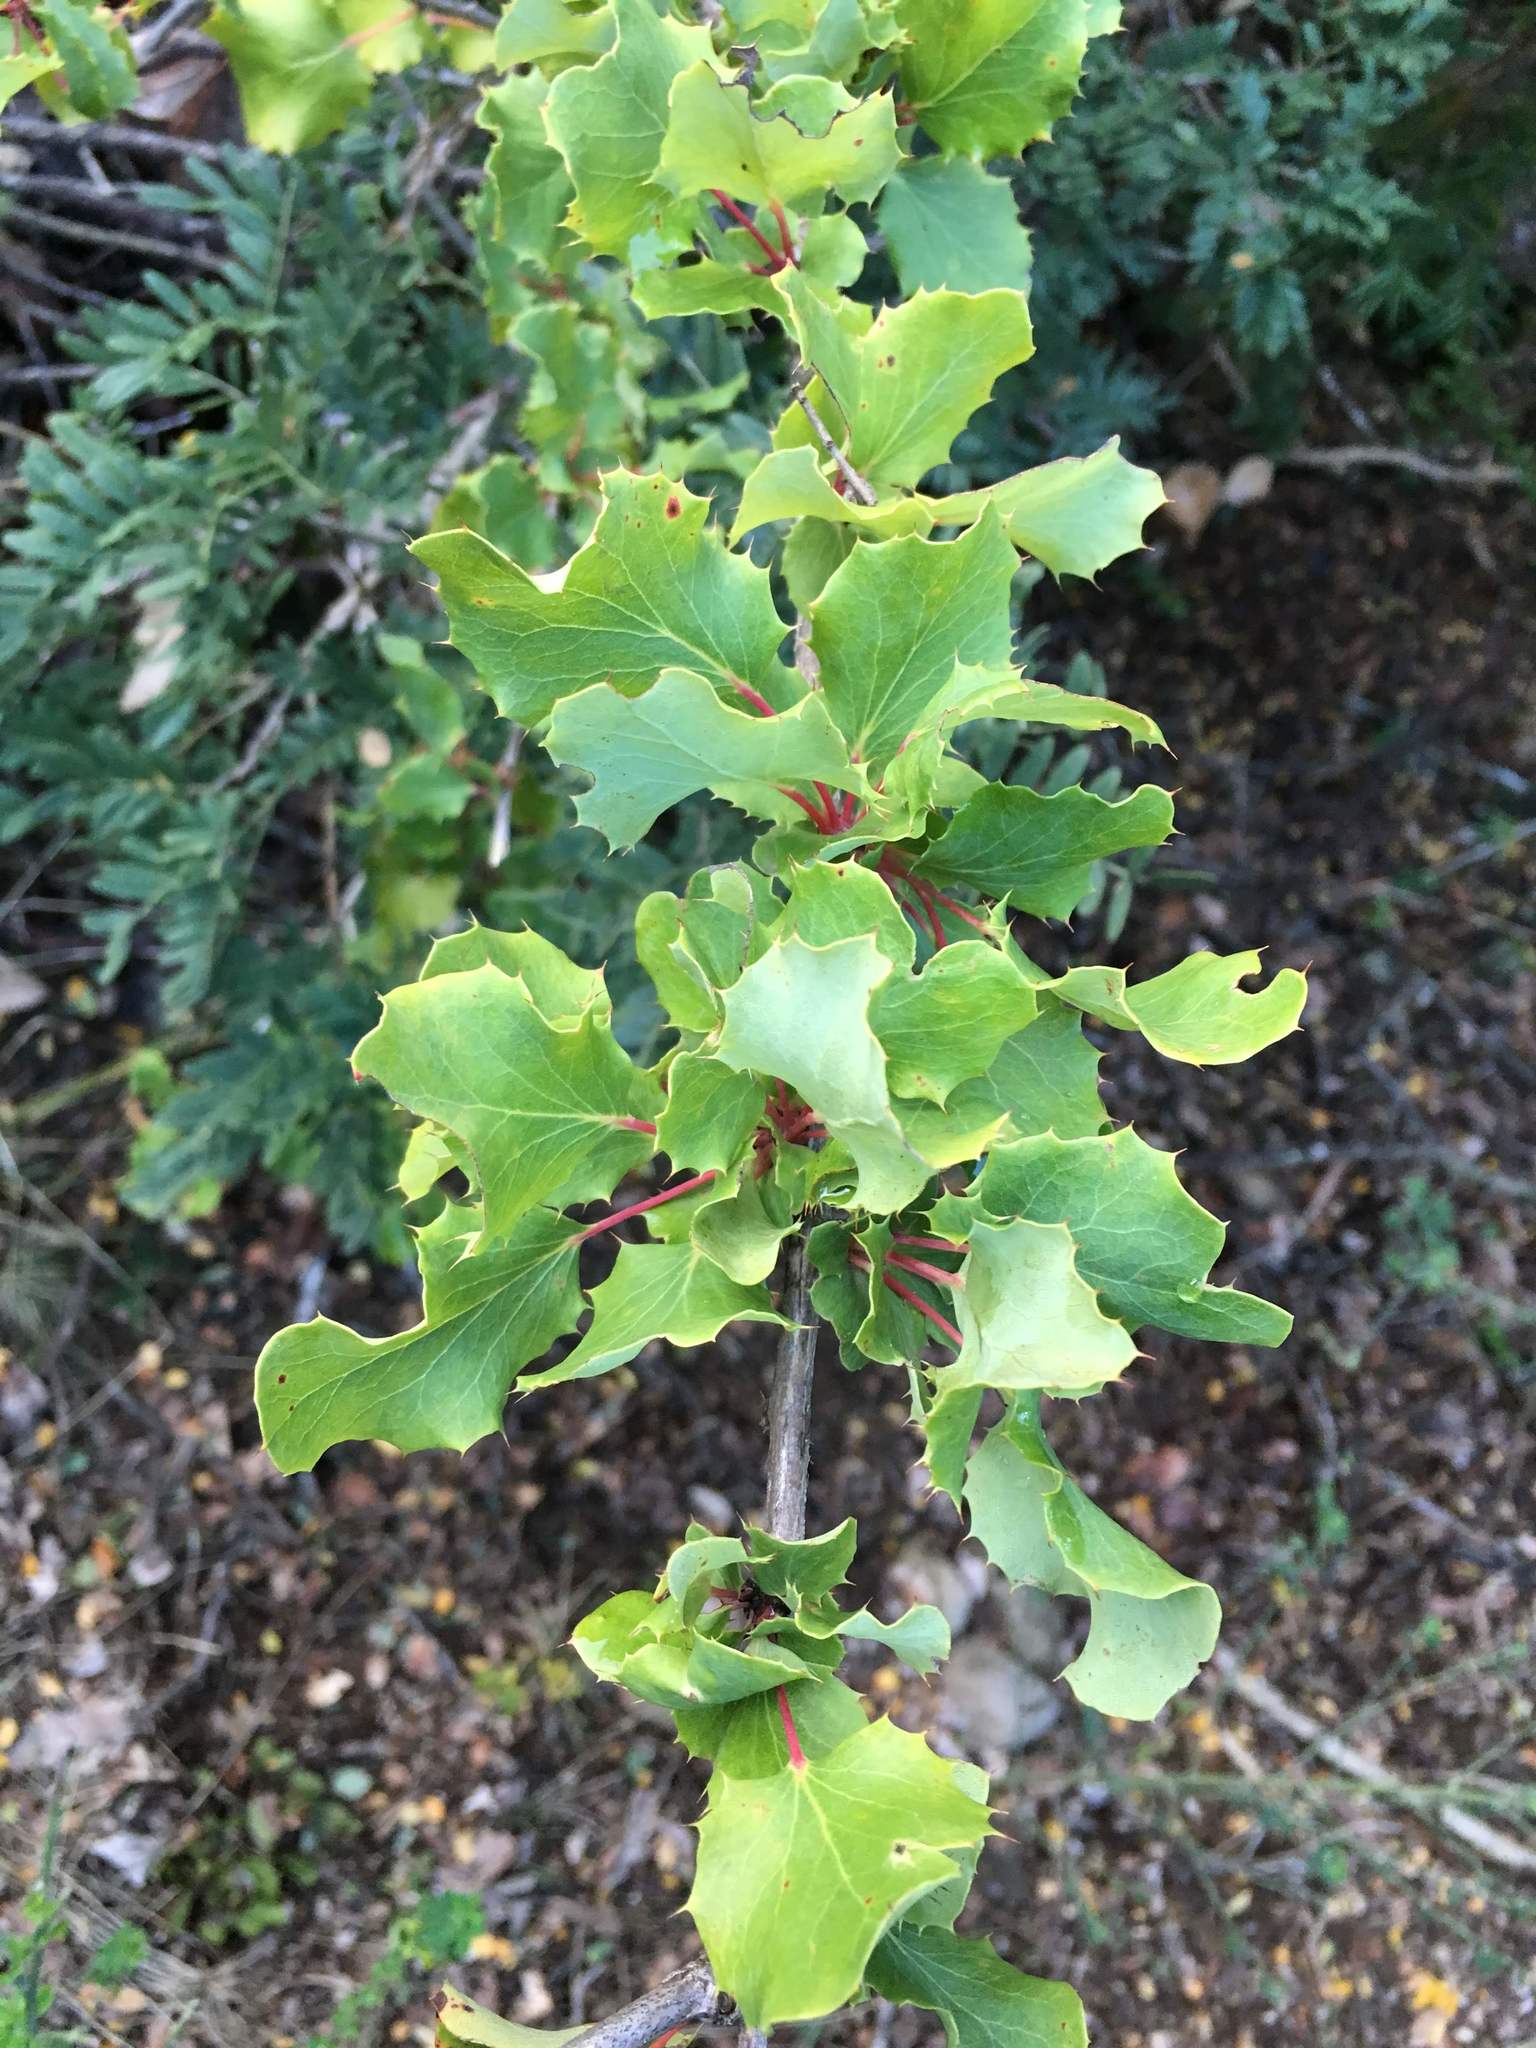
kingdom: Plantae
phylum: Tracheophyta
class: Magnoliopsida
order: Ranunculales
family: Berberidaceae
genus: Berberis
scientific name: Berberis actinacantha
